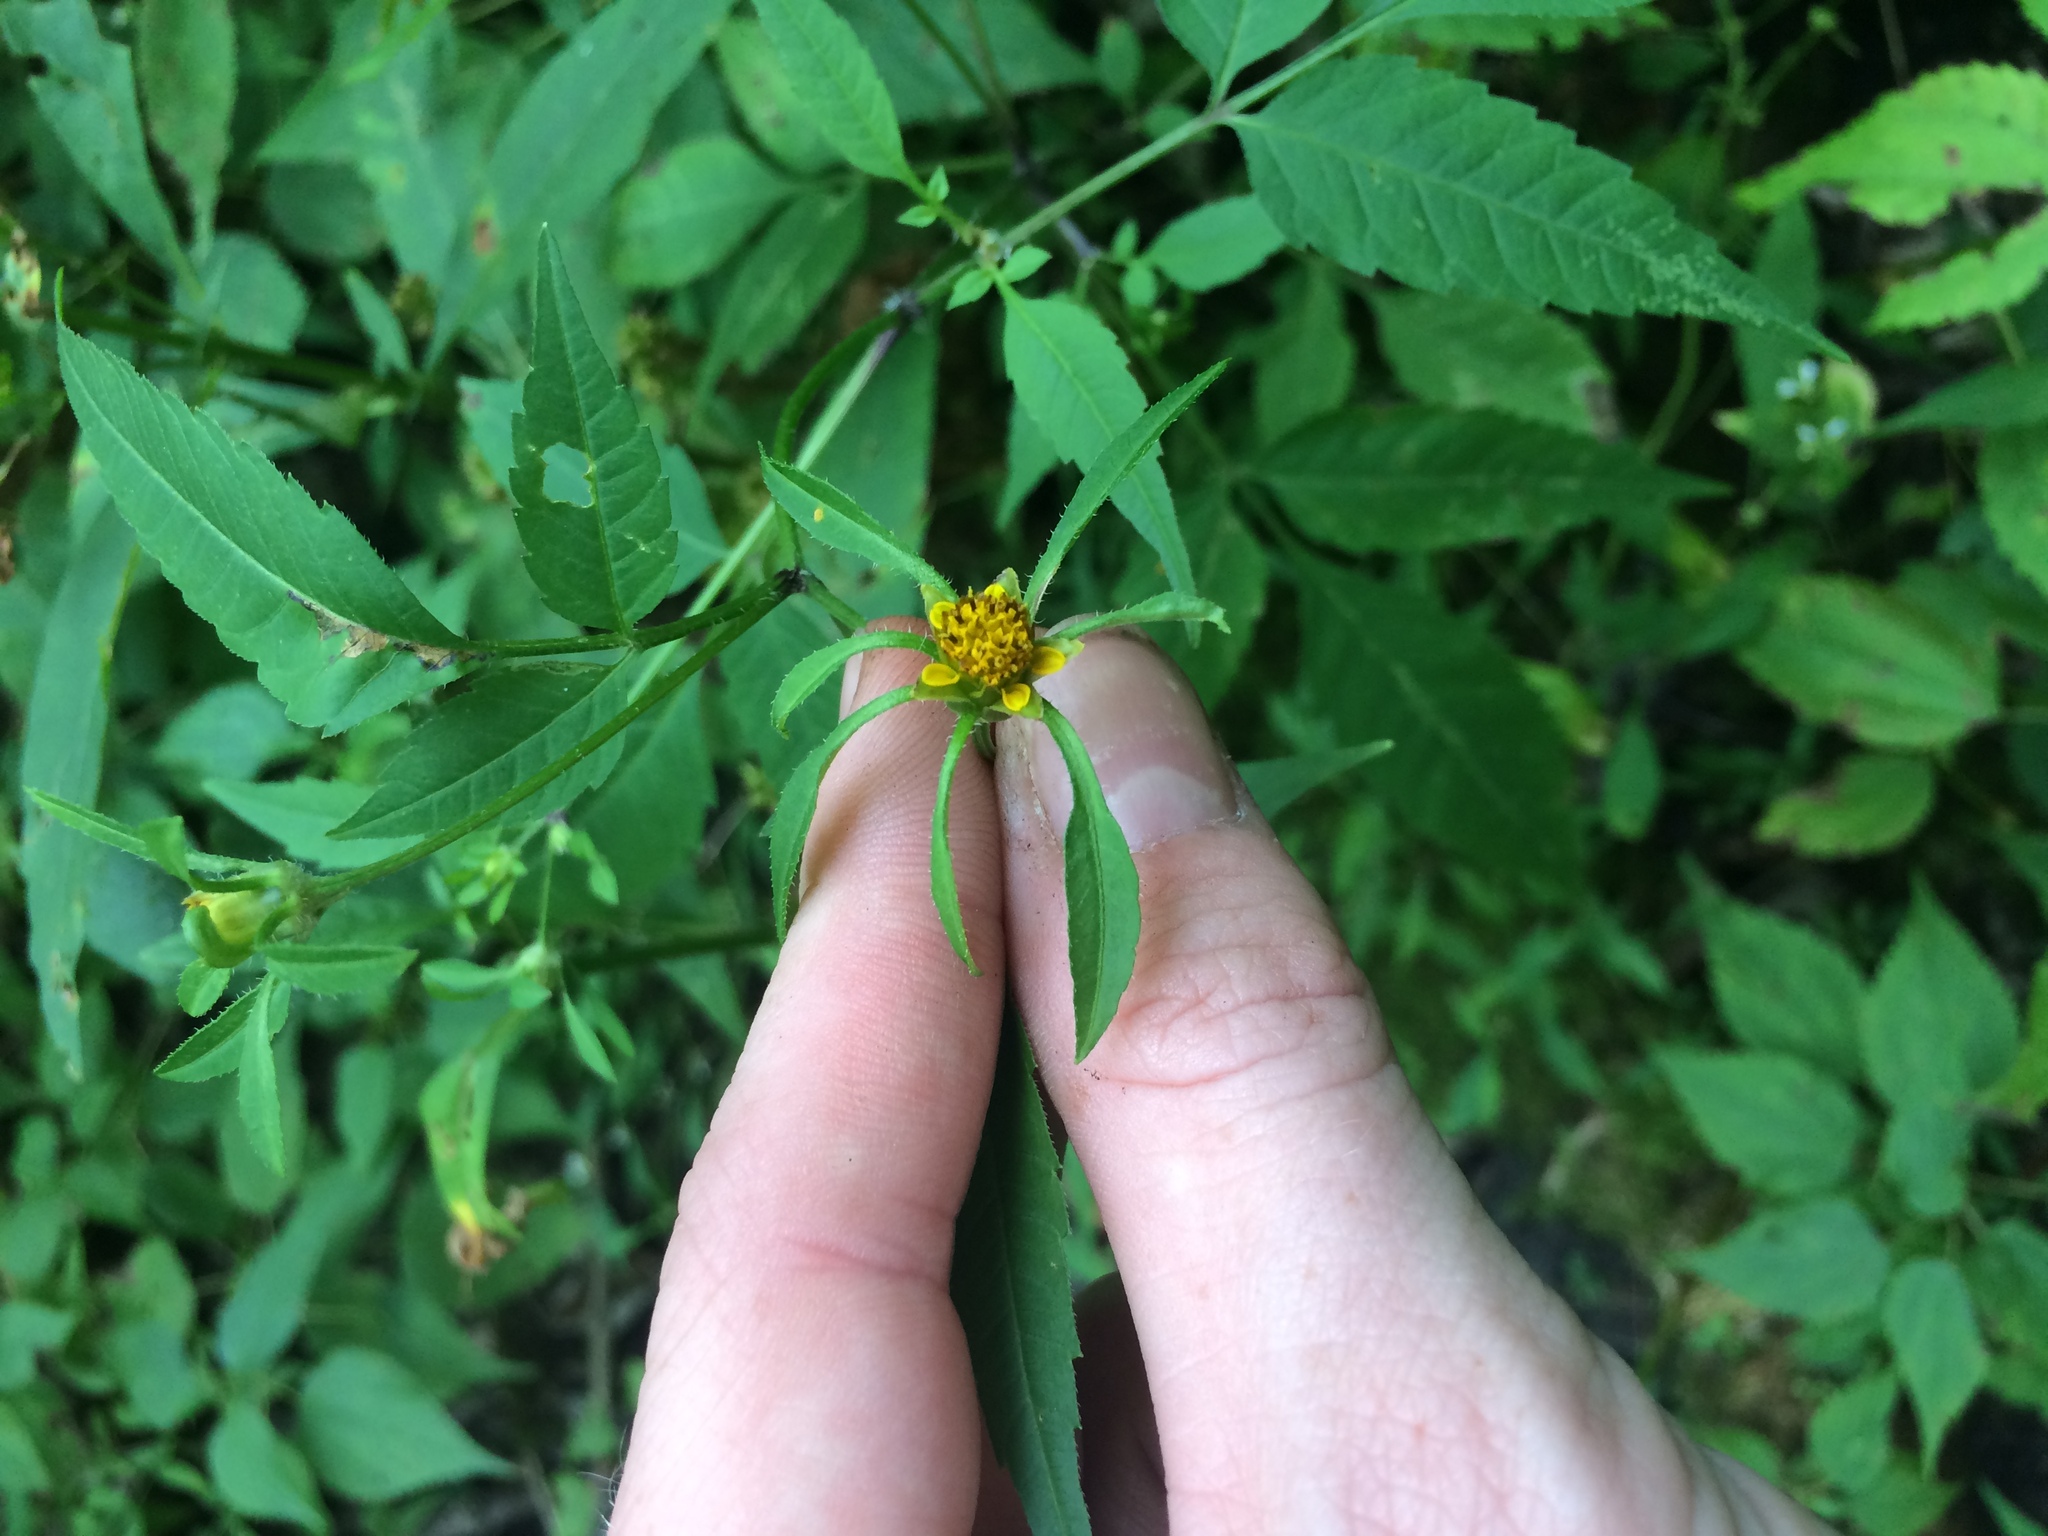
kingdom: Plantae
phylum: Tracheophyta
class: Magnoliopsida
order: Asterales
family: Asteraceae
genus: Bidens
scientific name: Bidens frondosa
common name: Beggarticks
